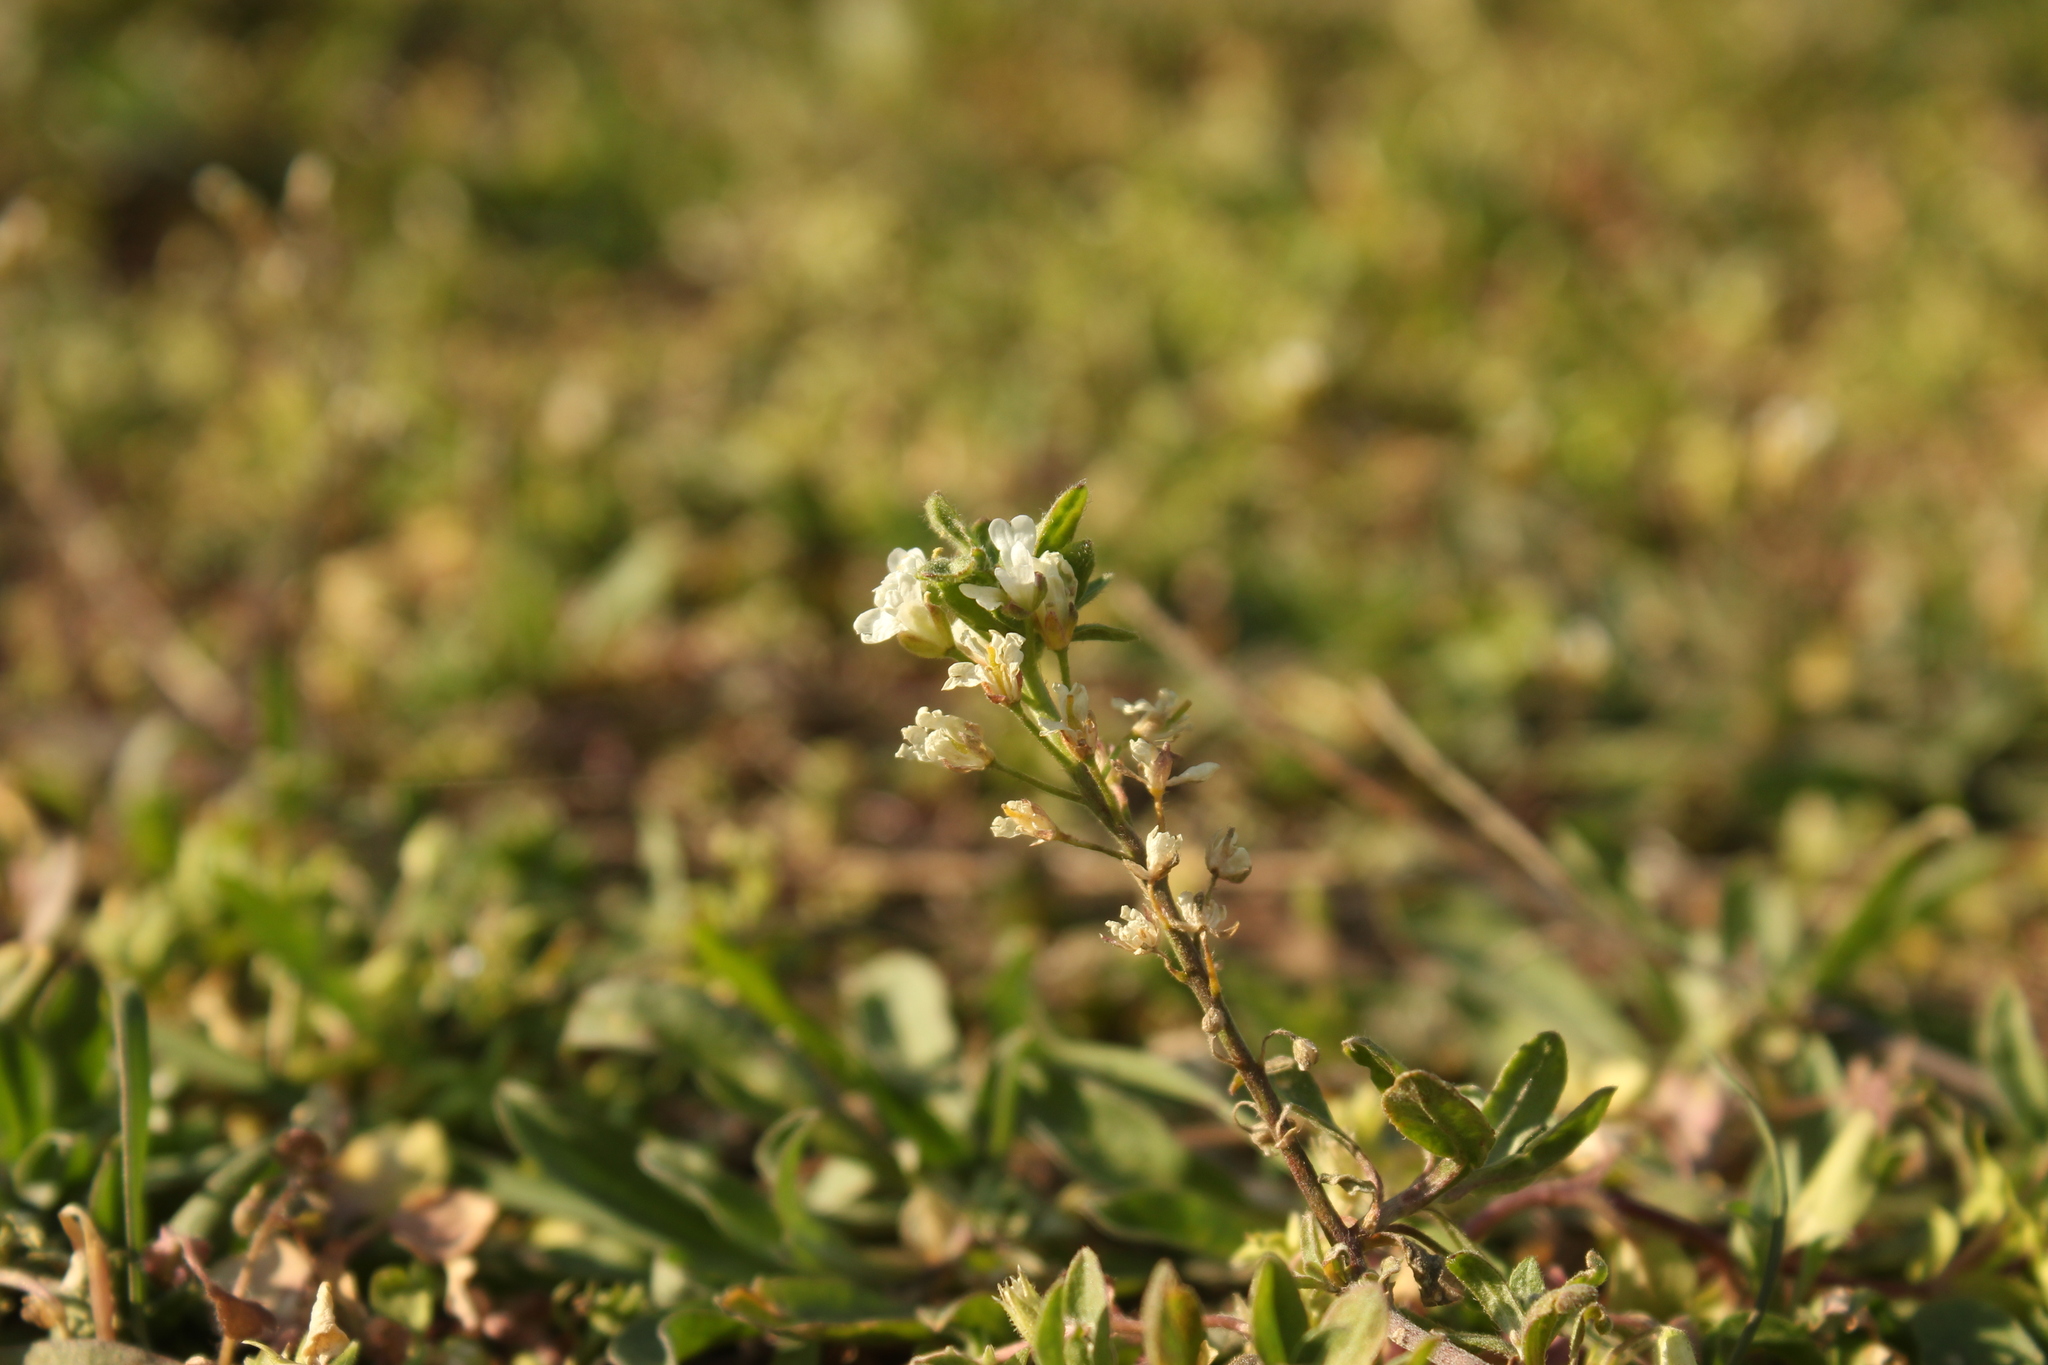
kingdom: Plantae
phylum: Tracheophyta
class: Magnoliopsida
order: Brassicales
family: Brassicaceae
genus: Berteroa
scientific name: Berteroa incana
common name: Hoary alison
